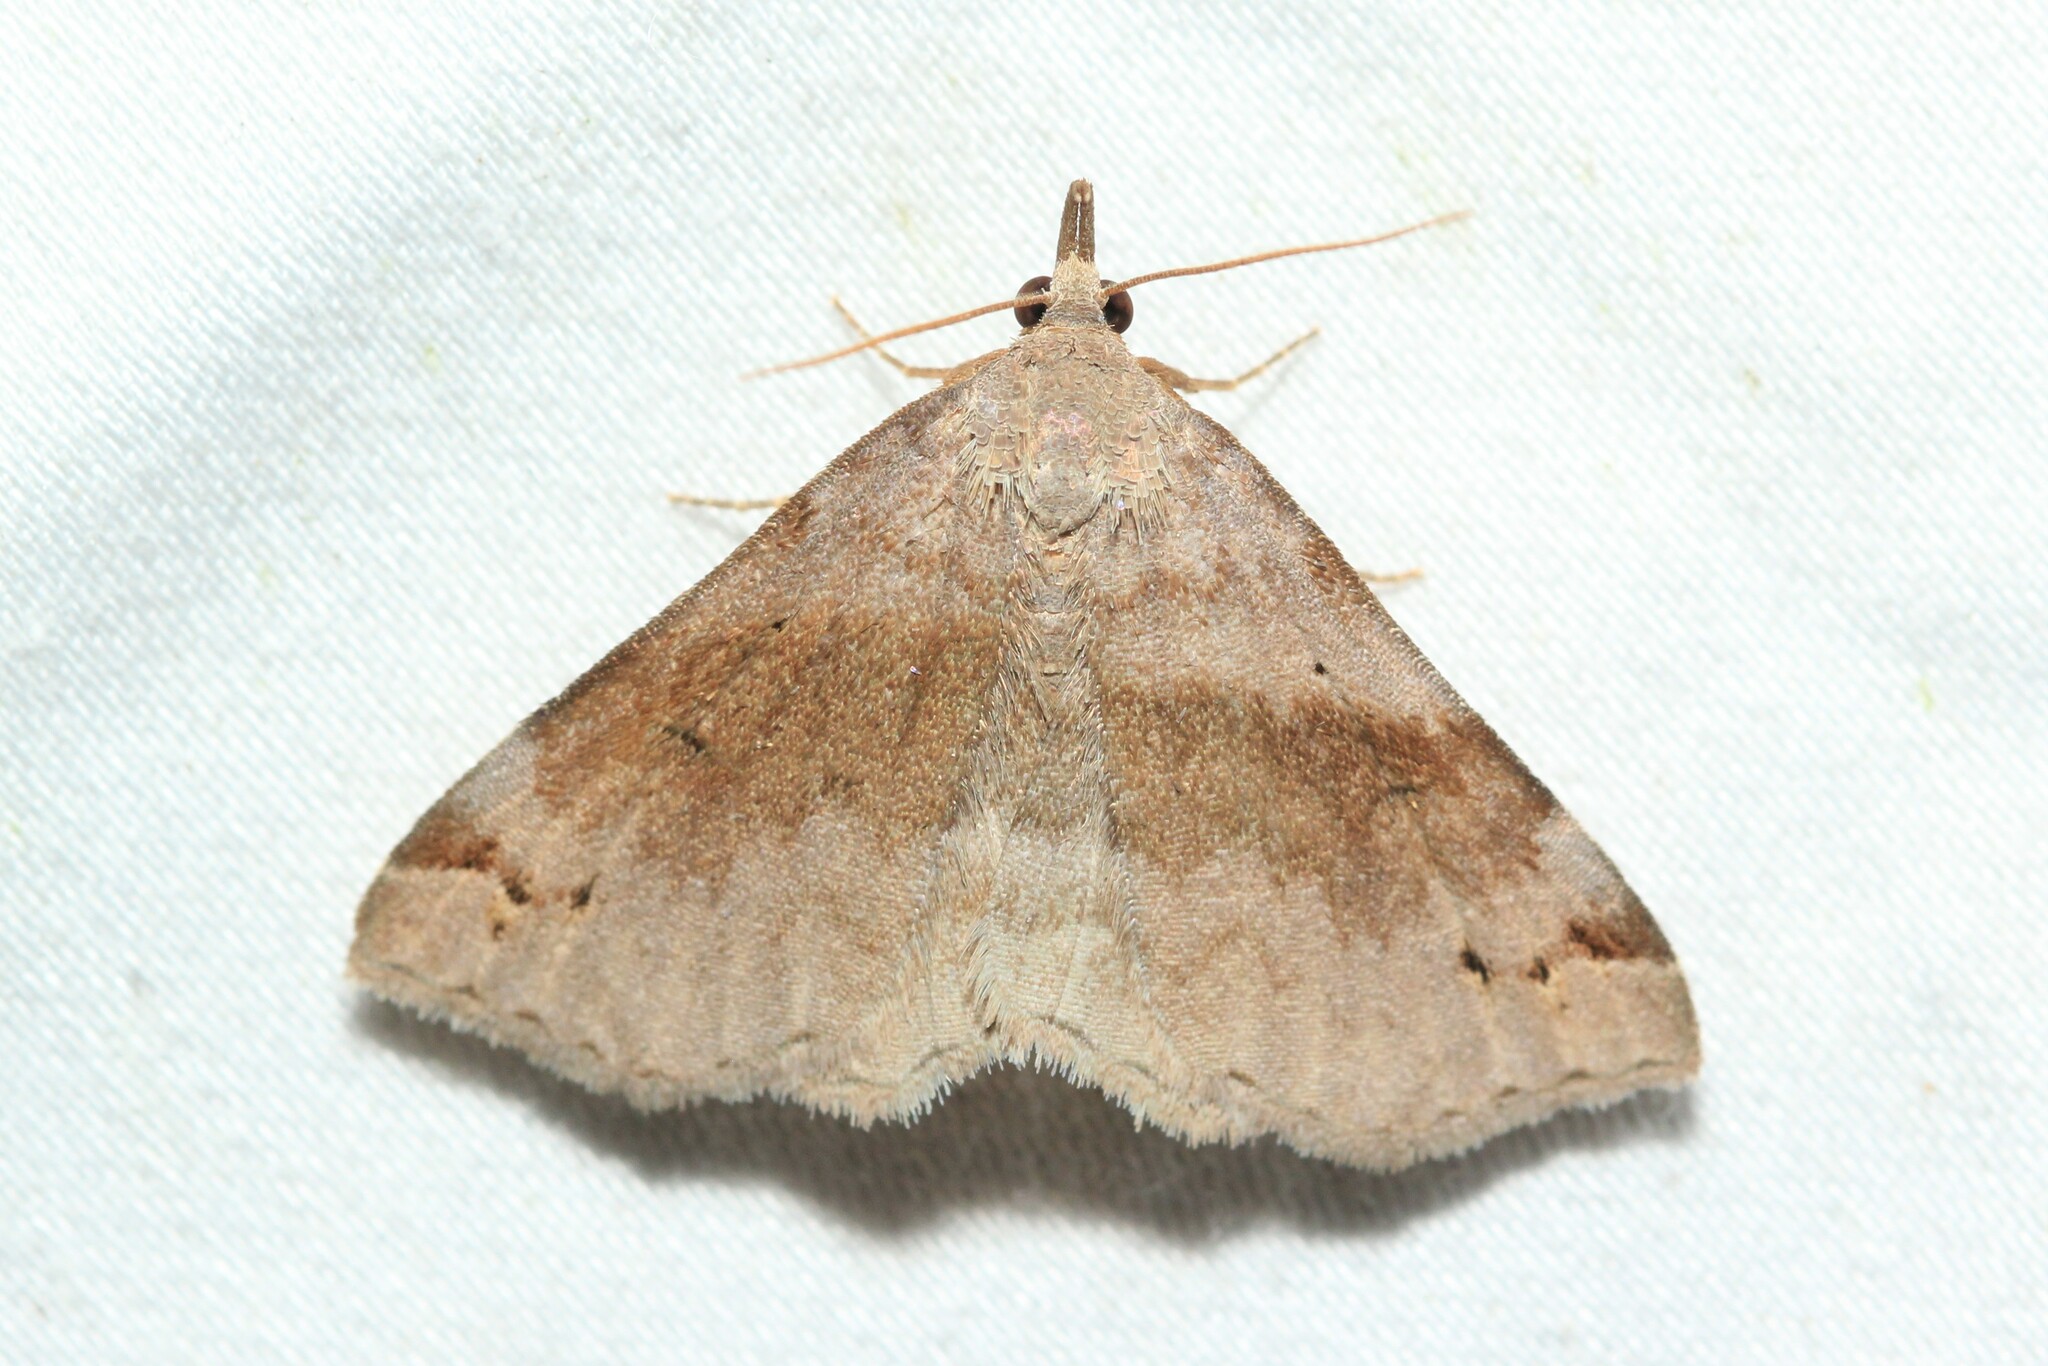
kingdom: Animalia
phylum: Arthropoda
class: Insecta
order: Lepidoptera
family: Erebidae
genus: Spargaloma
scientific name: Spargaloma sexpunctata
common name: Six-spotted gray
